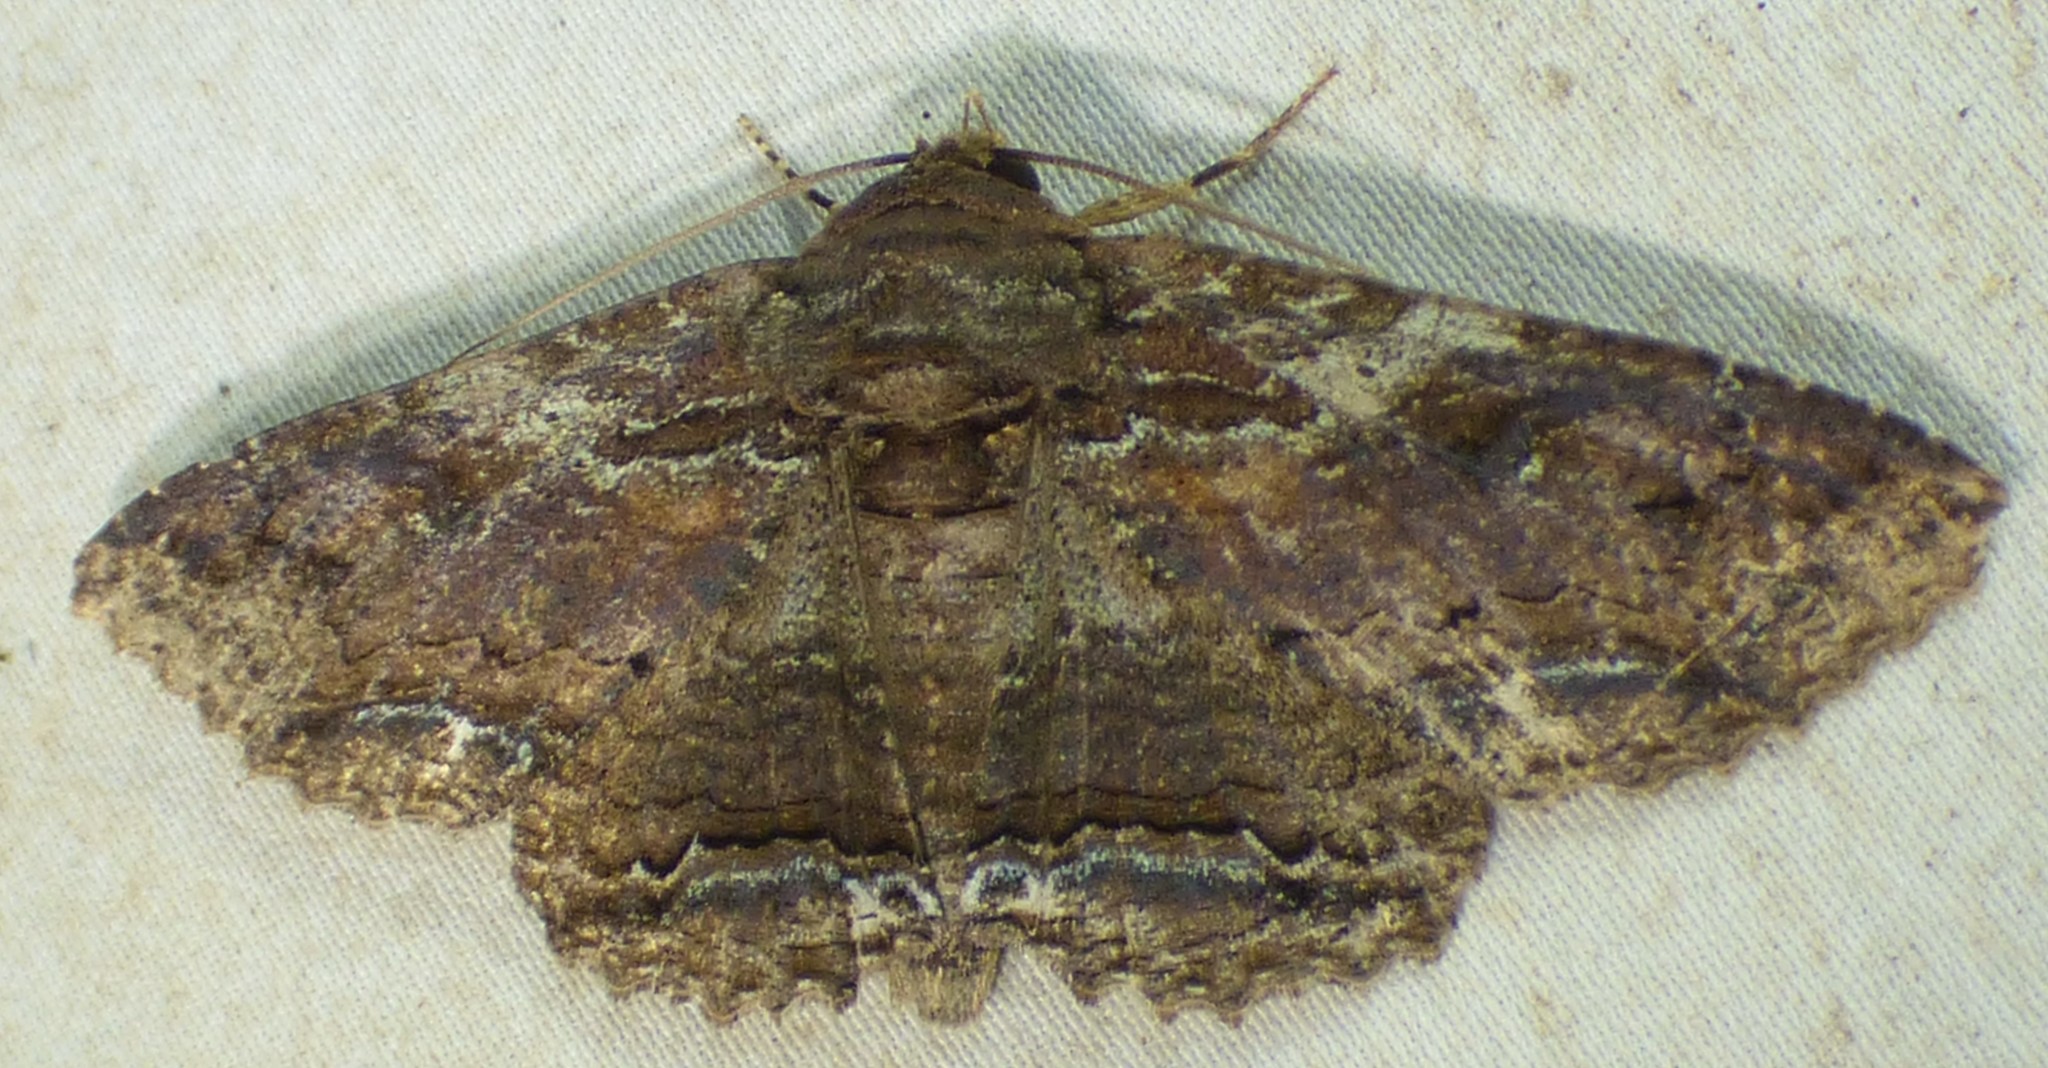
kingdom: Animalia
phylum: Arthropoda
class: Insecta
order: Lepidoptera
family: Erebidae
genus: Zale
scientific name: Zale lunata
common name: Lunate zale moth
